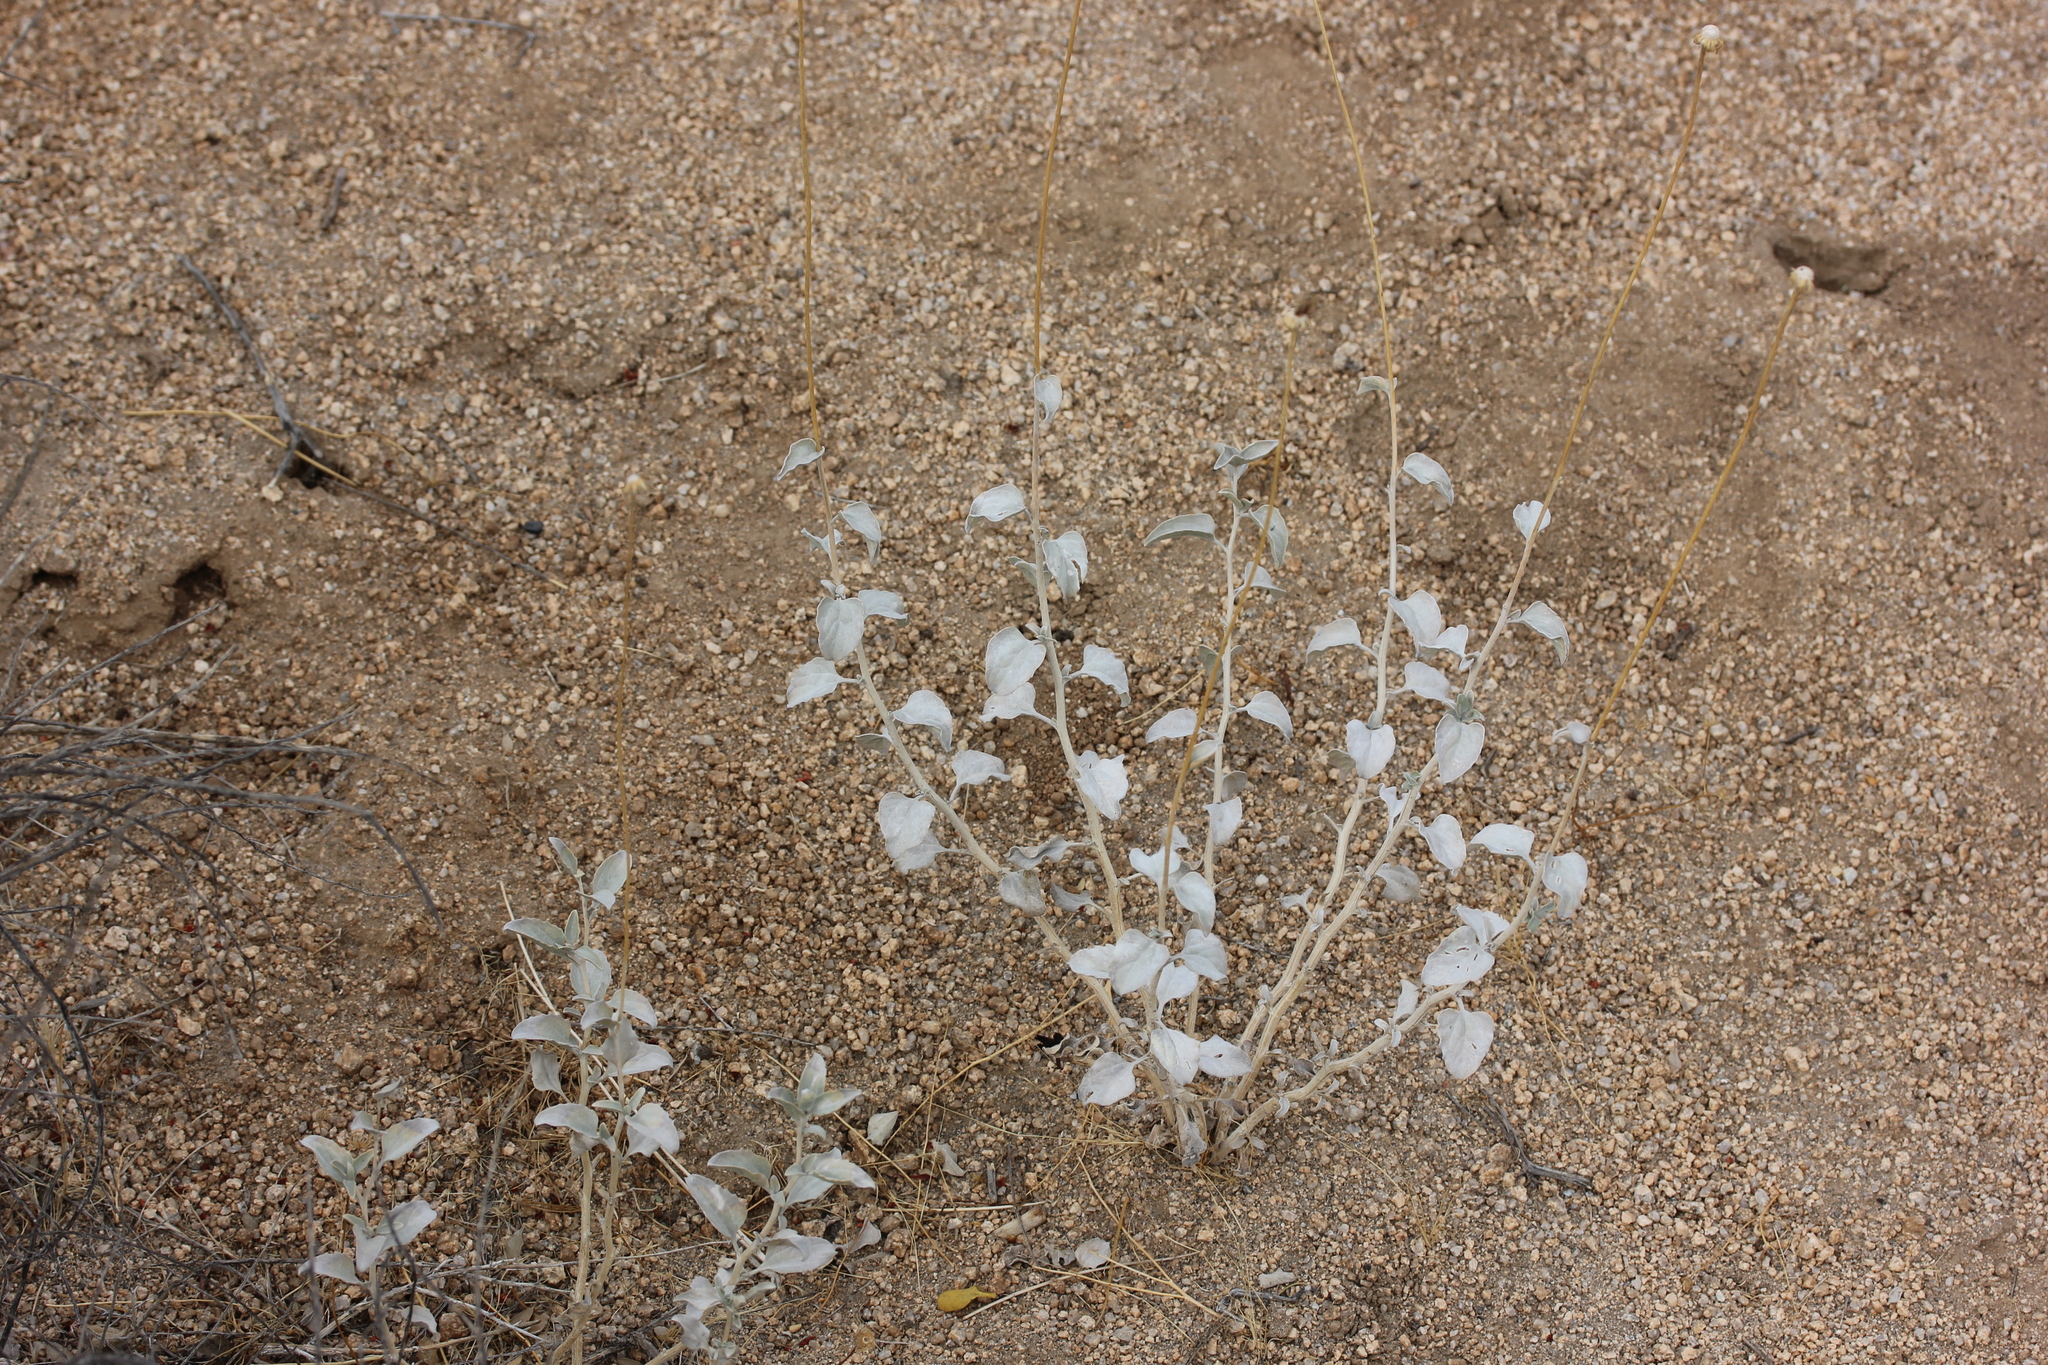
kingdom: Plantae
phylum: Tracheophyta
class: Magnoliopsida
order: Asterales
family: Asteraceae
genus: Encelia
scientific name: Encelia actoni
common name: Acton encelia
